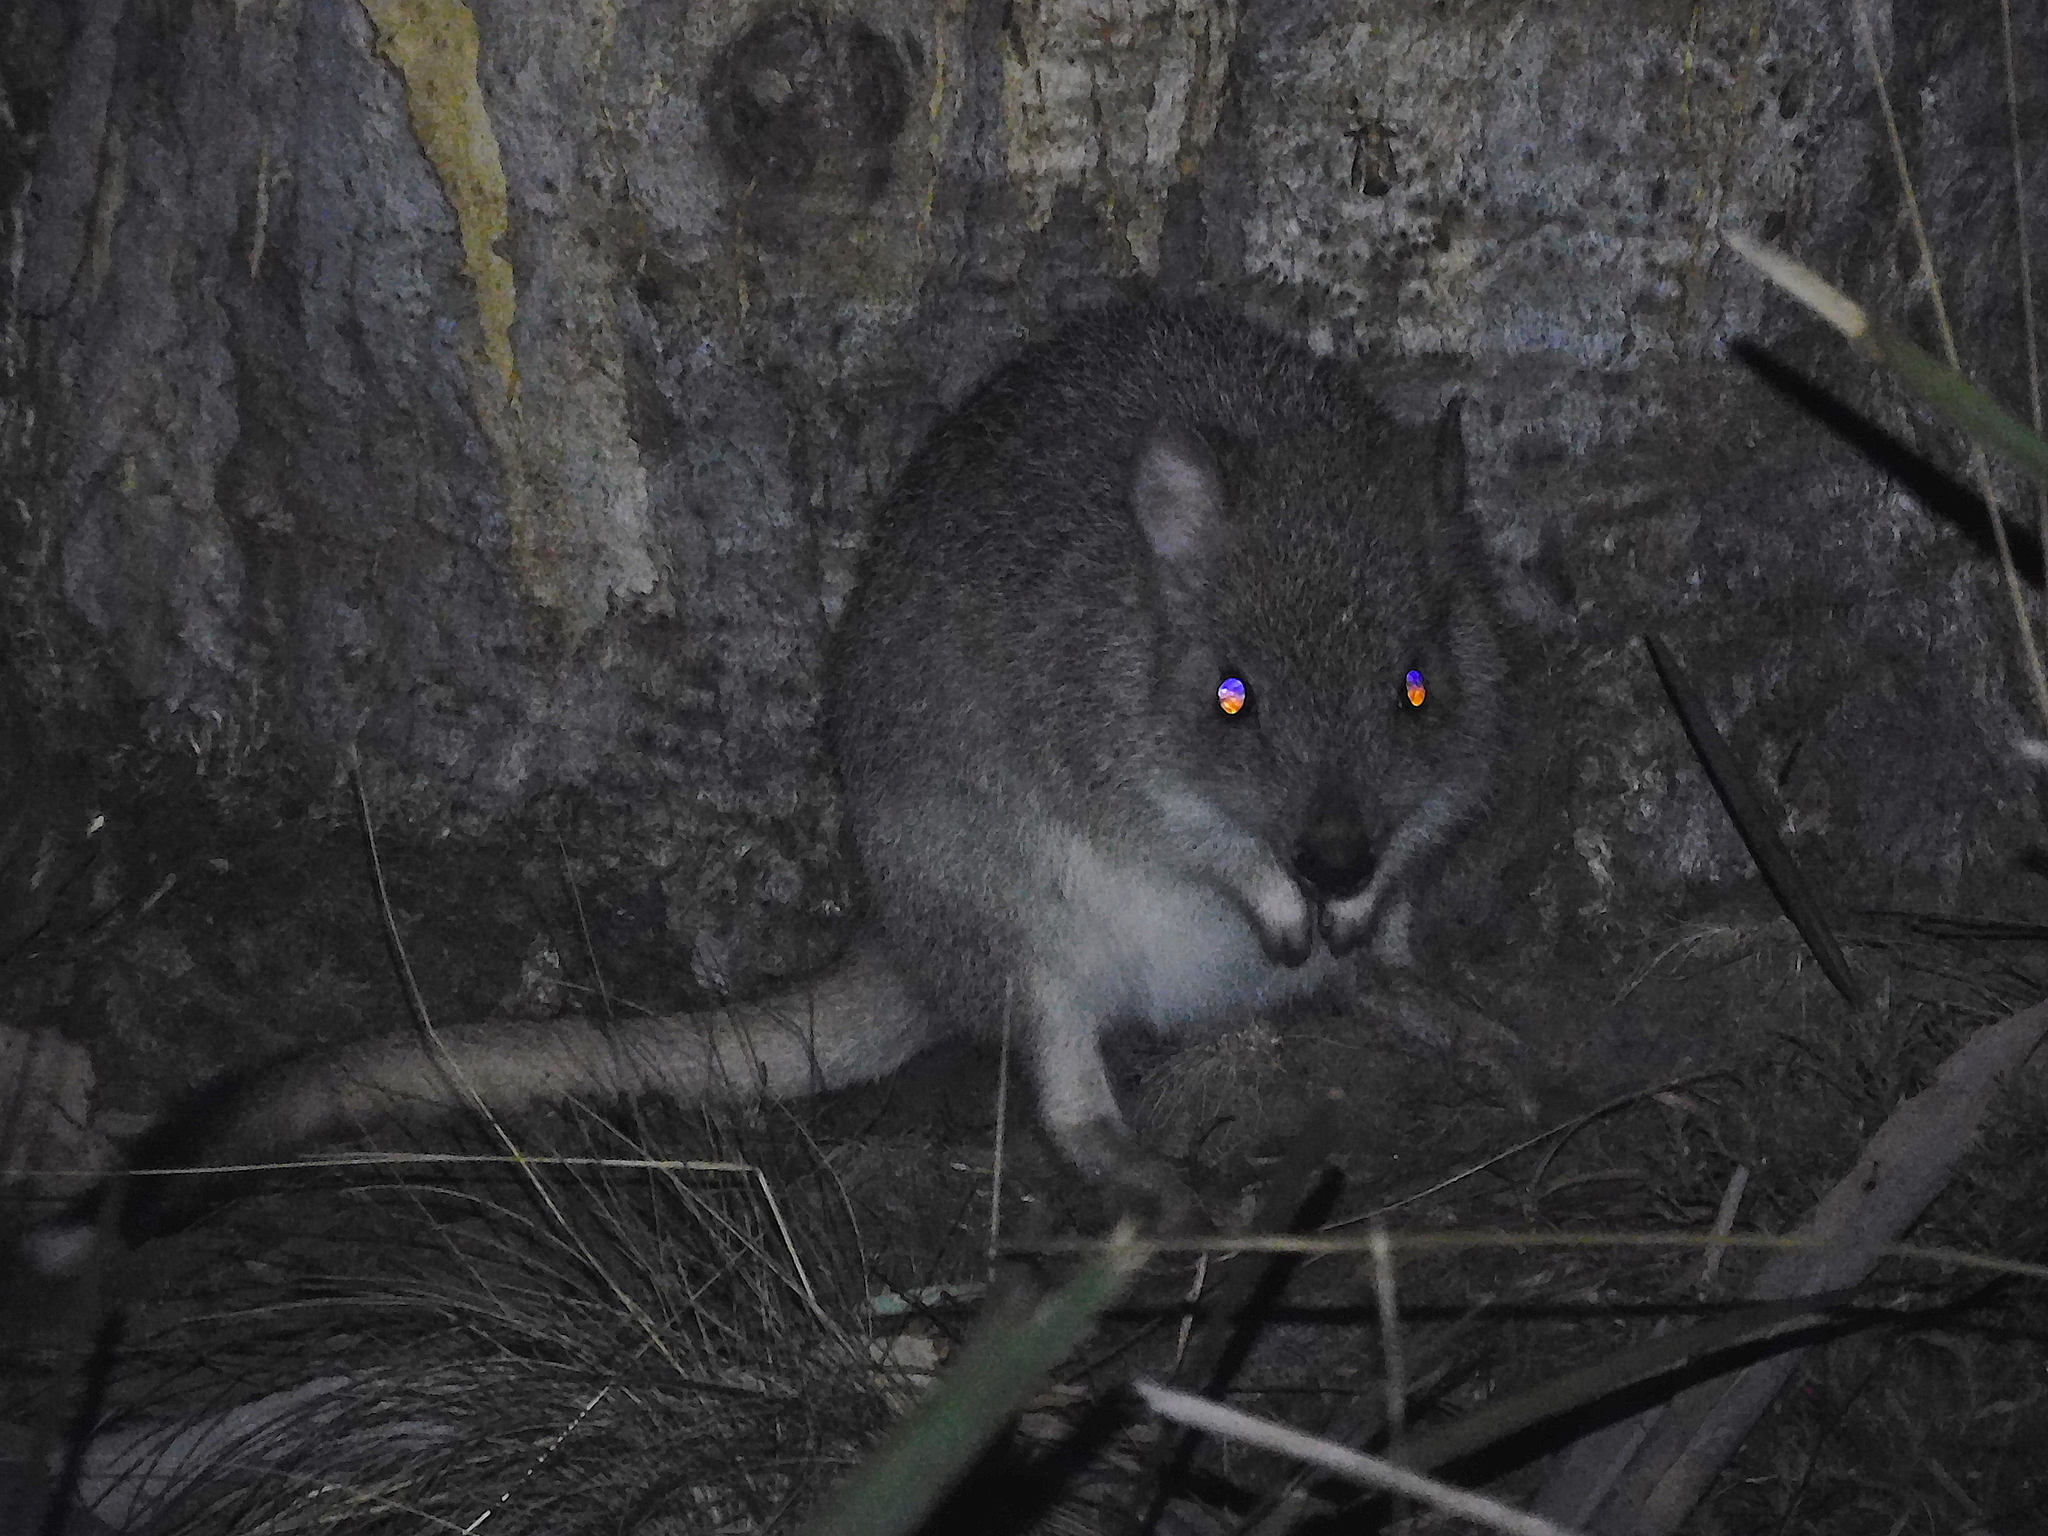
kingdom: Animalia
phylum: Chordata
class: Mammalia
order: Diprotodontia
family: Potoroidae
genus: Bettongia
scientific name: Bettongia gaimardi
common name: Eastern bettong
